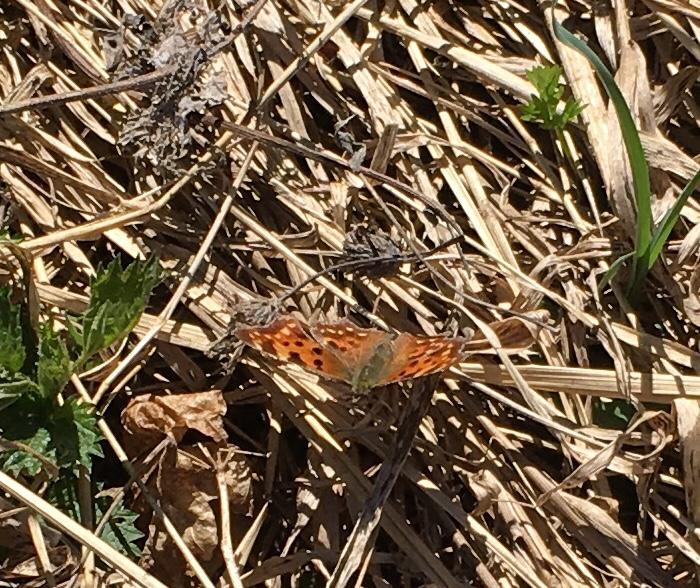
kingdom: Animalia
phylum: Arthropoda
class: Insecta
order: Lepidoptera
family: Nymphalidae
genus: Polygonia
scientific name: Polygonia c-album
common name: Comma
